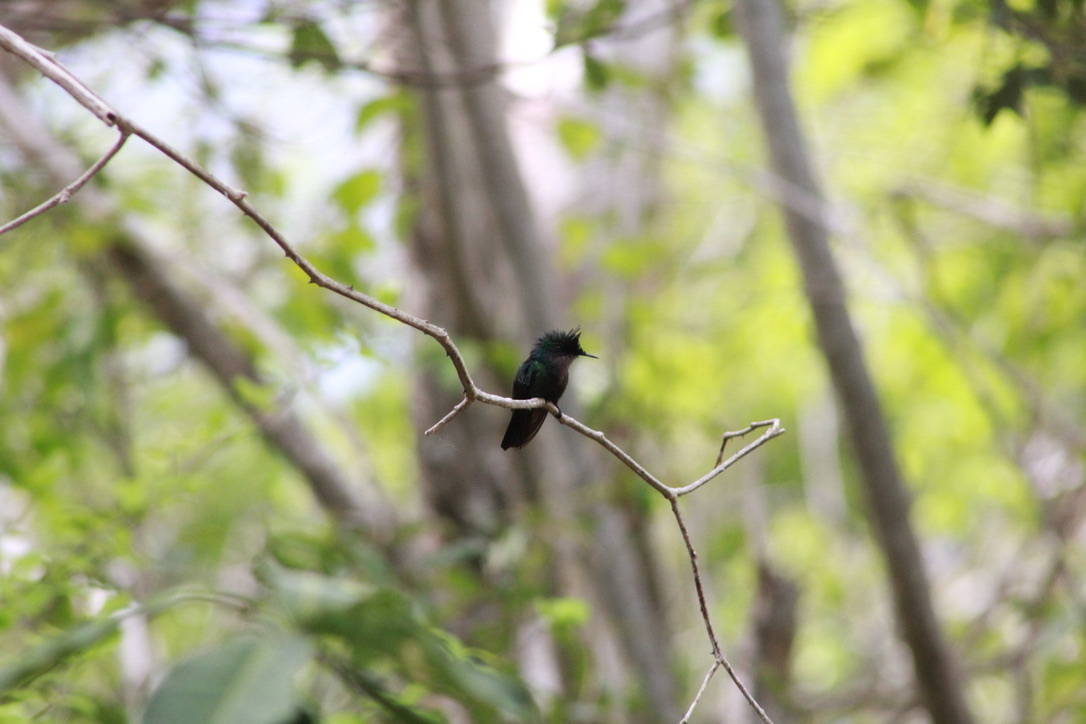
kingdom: Animalia
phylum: Chordata
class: Aves
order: Apodiformes
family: Trochilidae
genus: Orthorhyncus
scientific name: Orthorhyncus cristatus
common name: Antillean crested hummingbird
